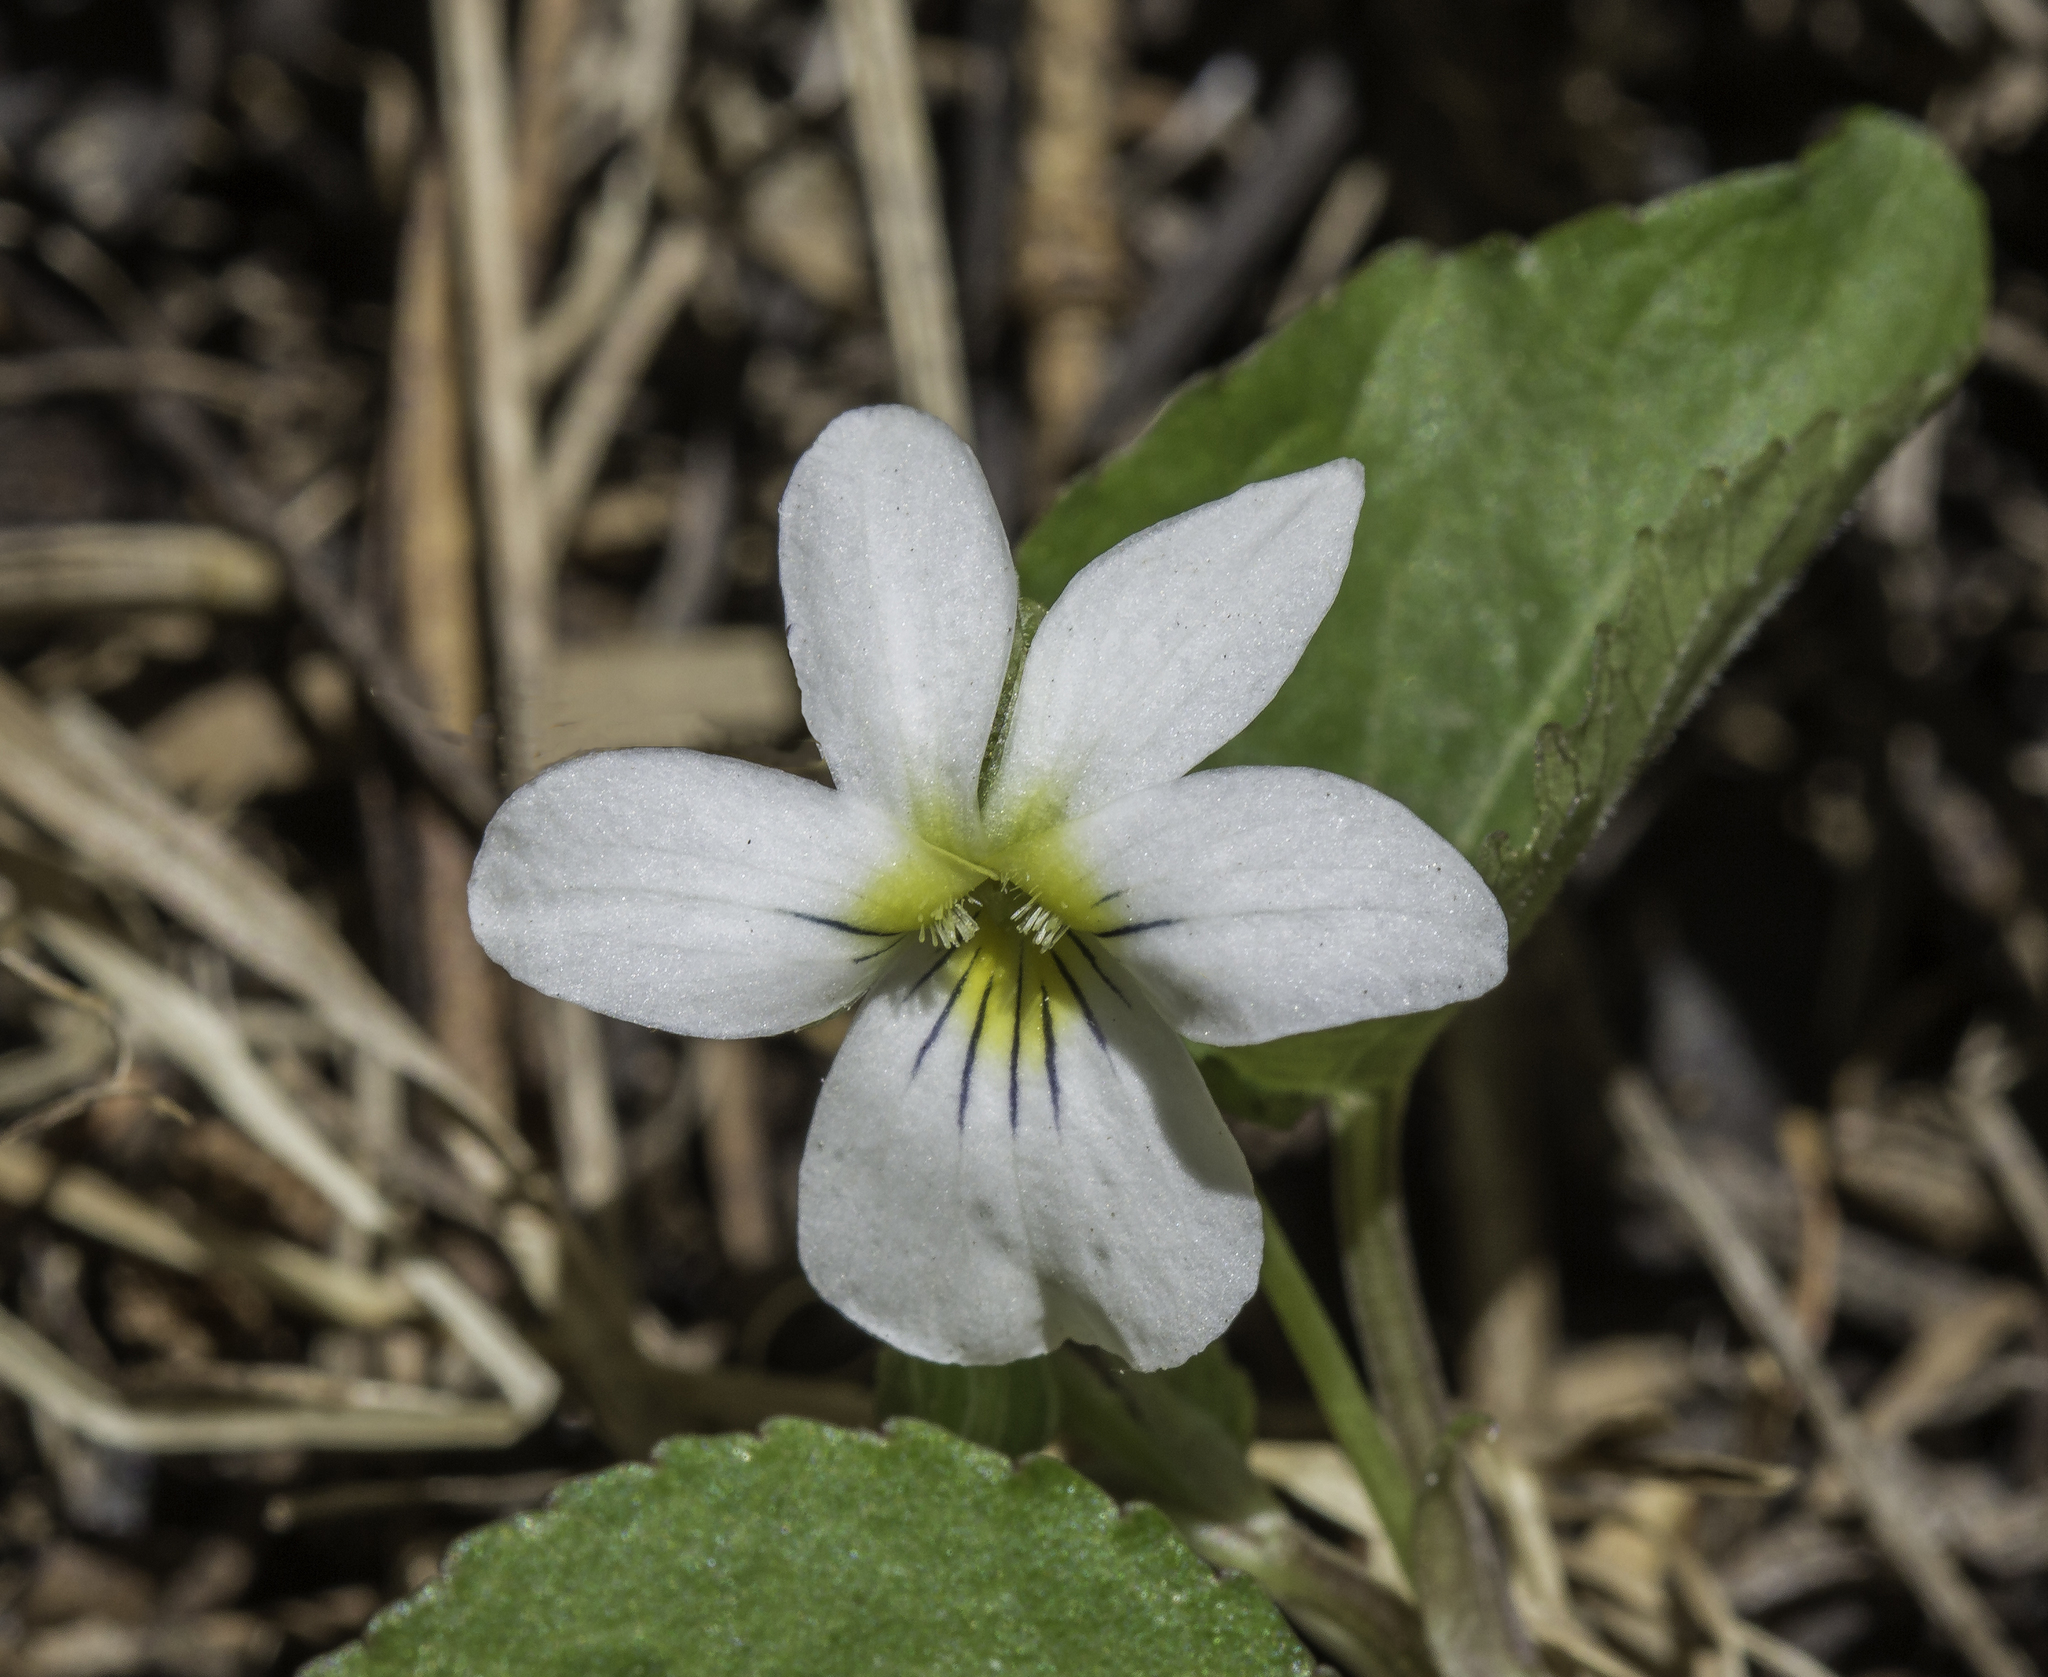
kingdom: Plantae
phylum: Tracheophyta
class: Magnoliopsida
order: Malpighiales
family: Violaceae
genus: Viola
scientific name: Viola canadensis
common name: Canada violet
